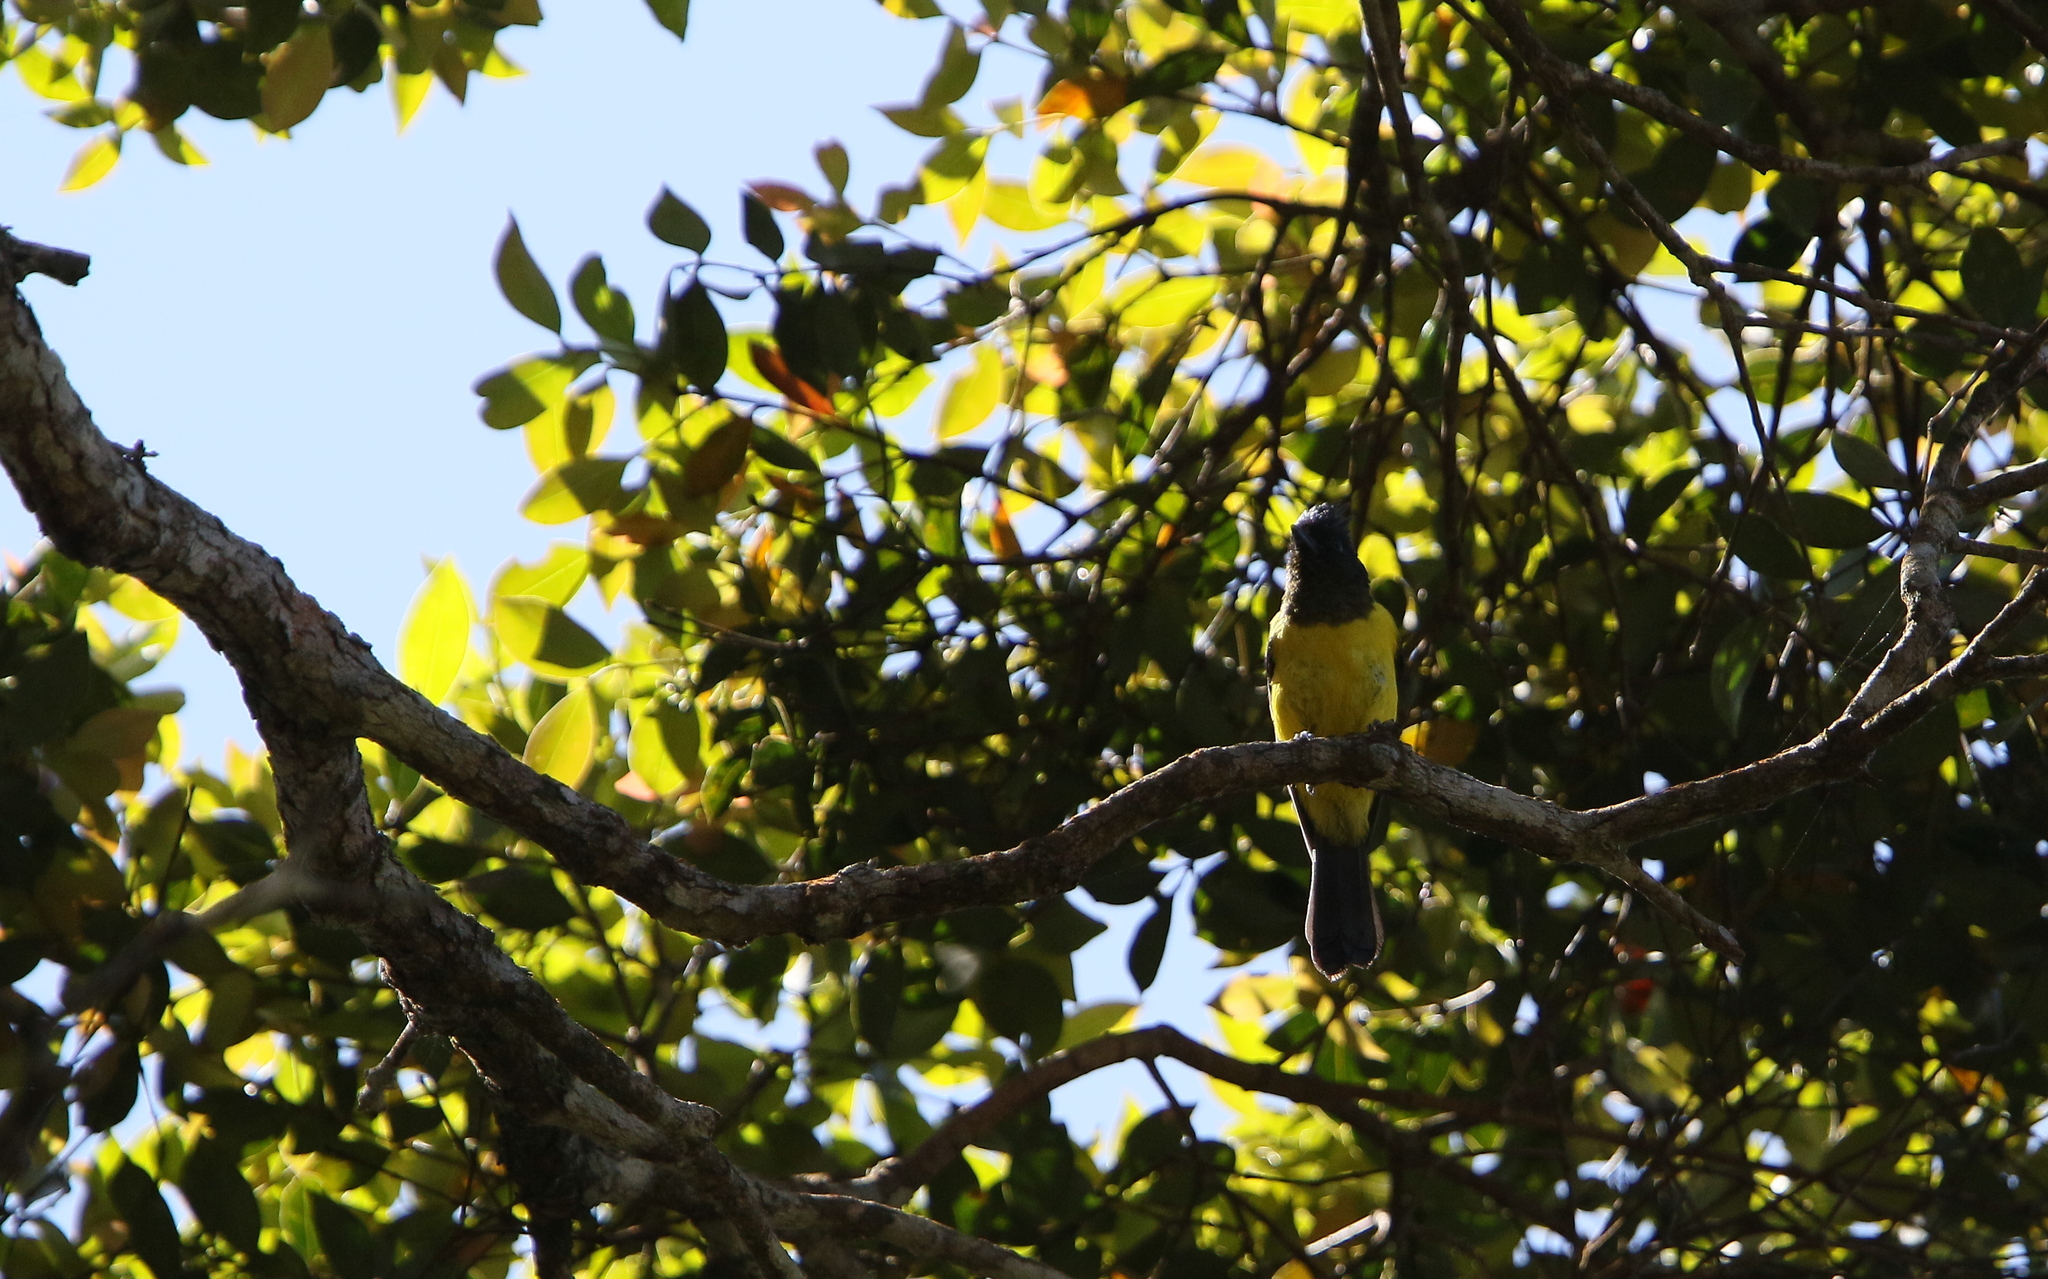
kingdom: Animalia
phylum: Chordata
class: Aves
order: Passeriformes
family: Paridae
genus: Melanochlora
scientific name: Melanochlora sultanea
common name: Sultan tit
